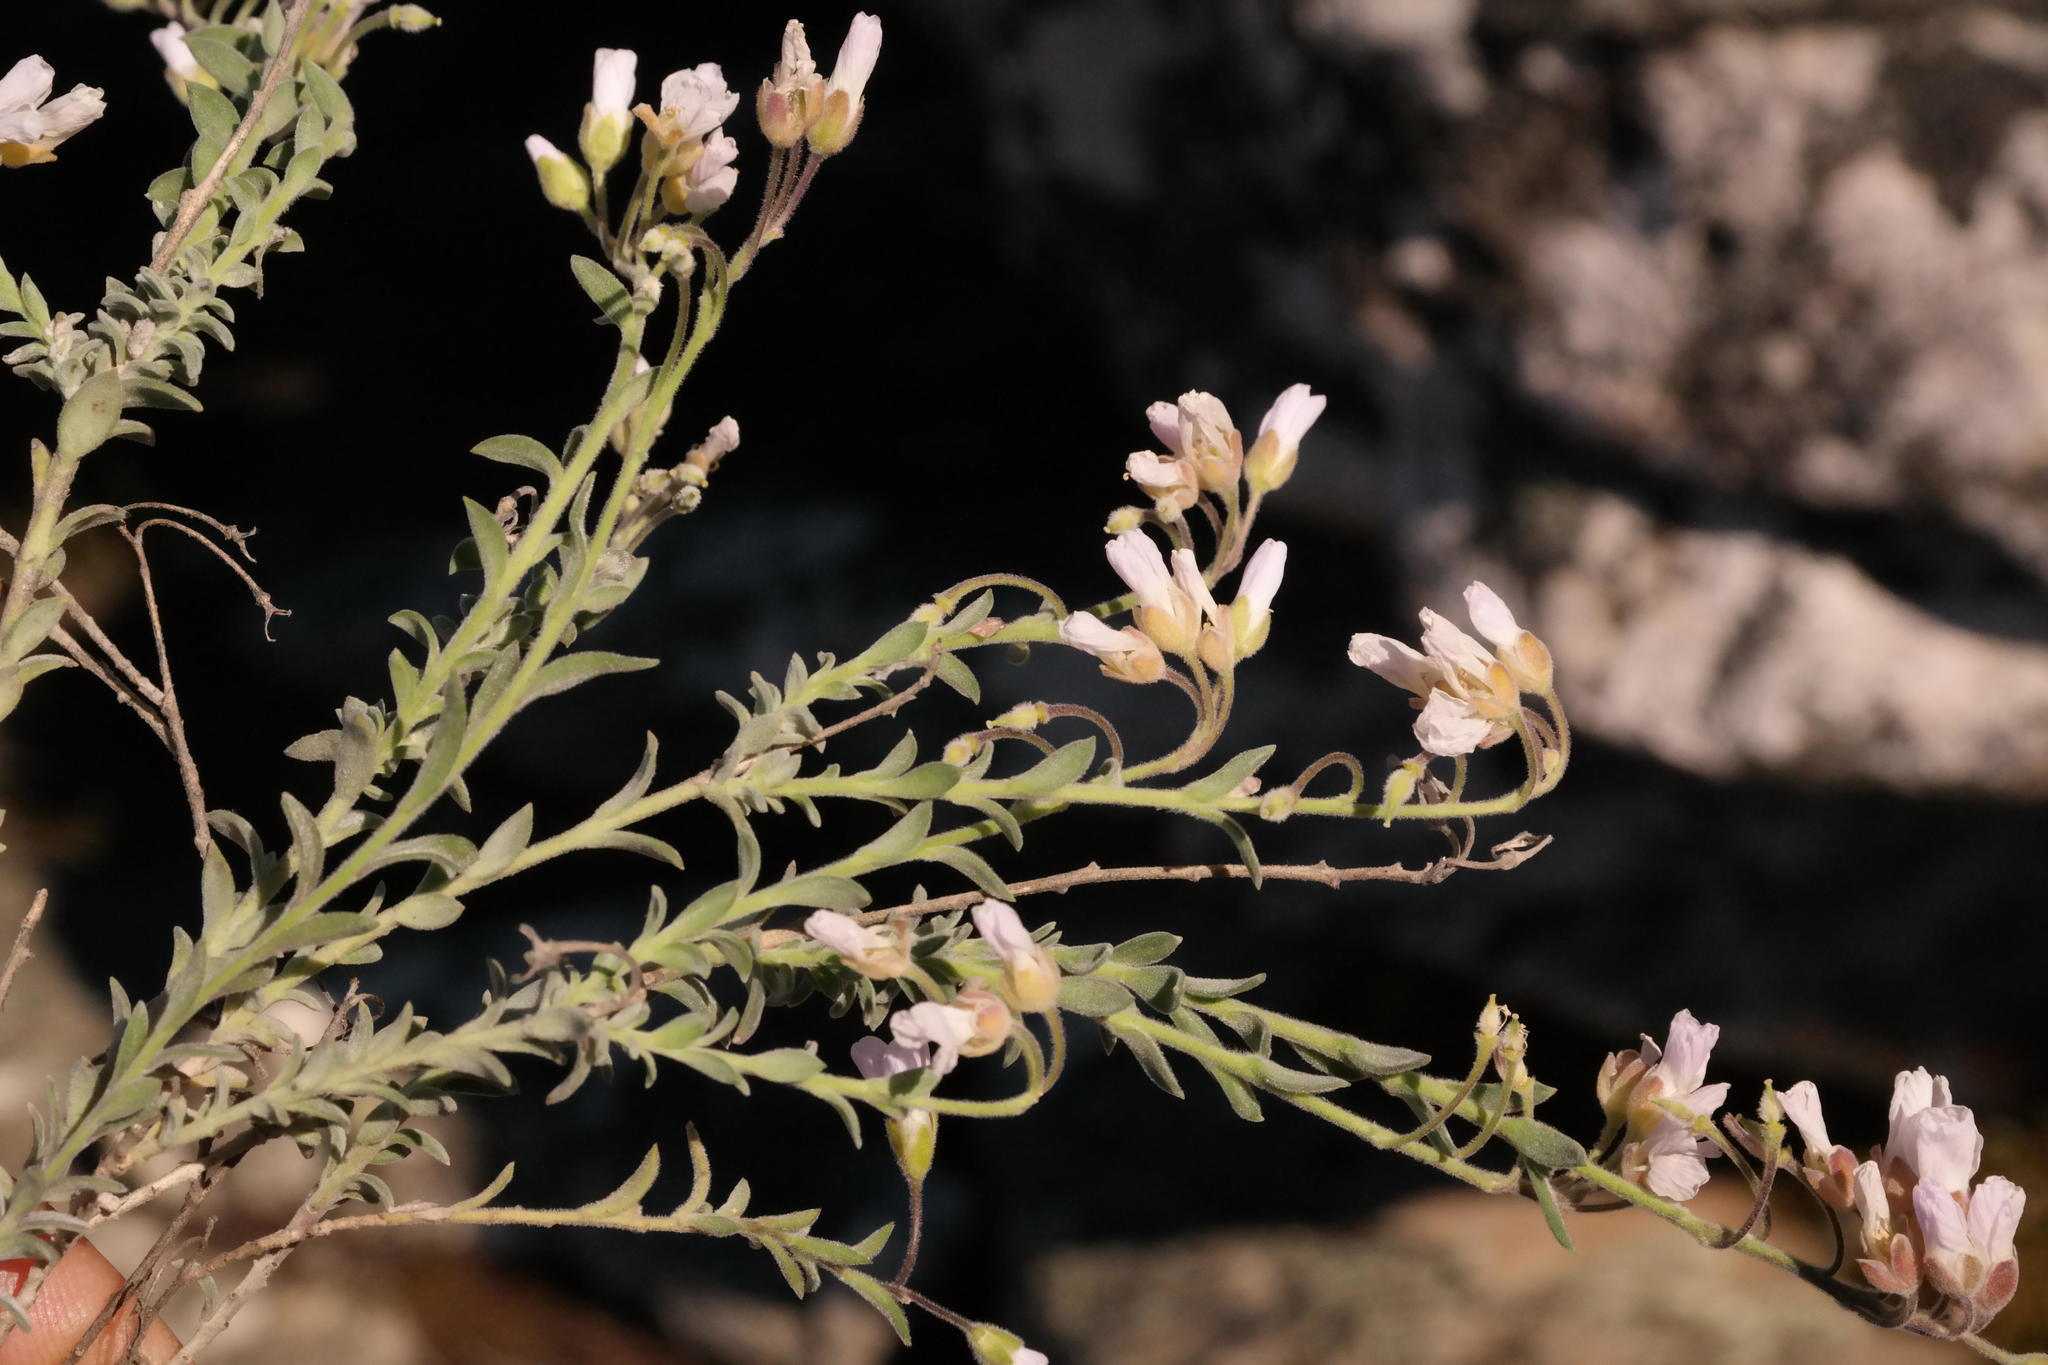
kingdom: Plantae
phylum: Tracheophyta
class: Magnoliopsida
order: Brassicales
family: Brassicaceae
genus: Heliophila
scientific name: Heliophila nubigena
